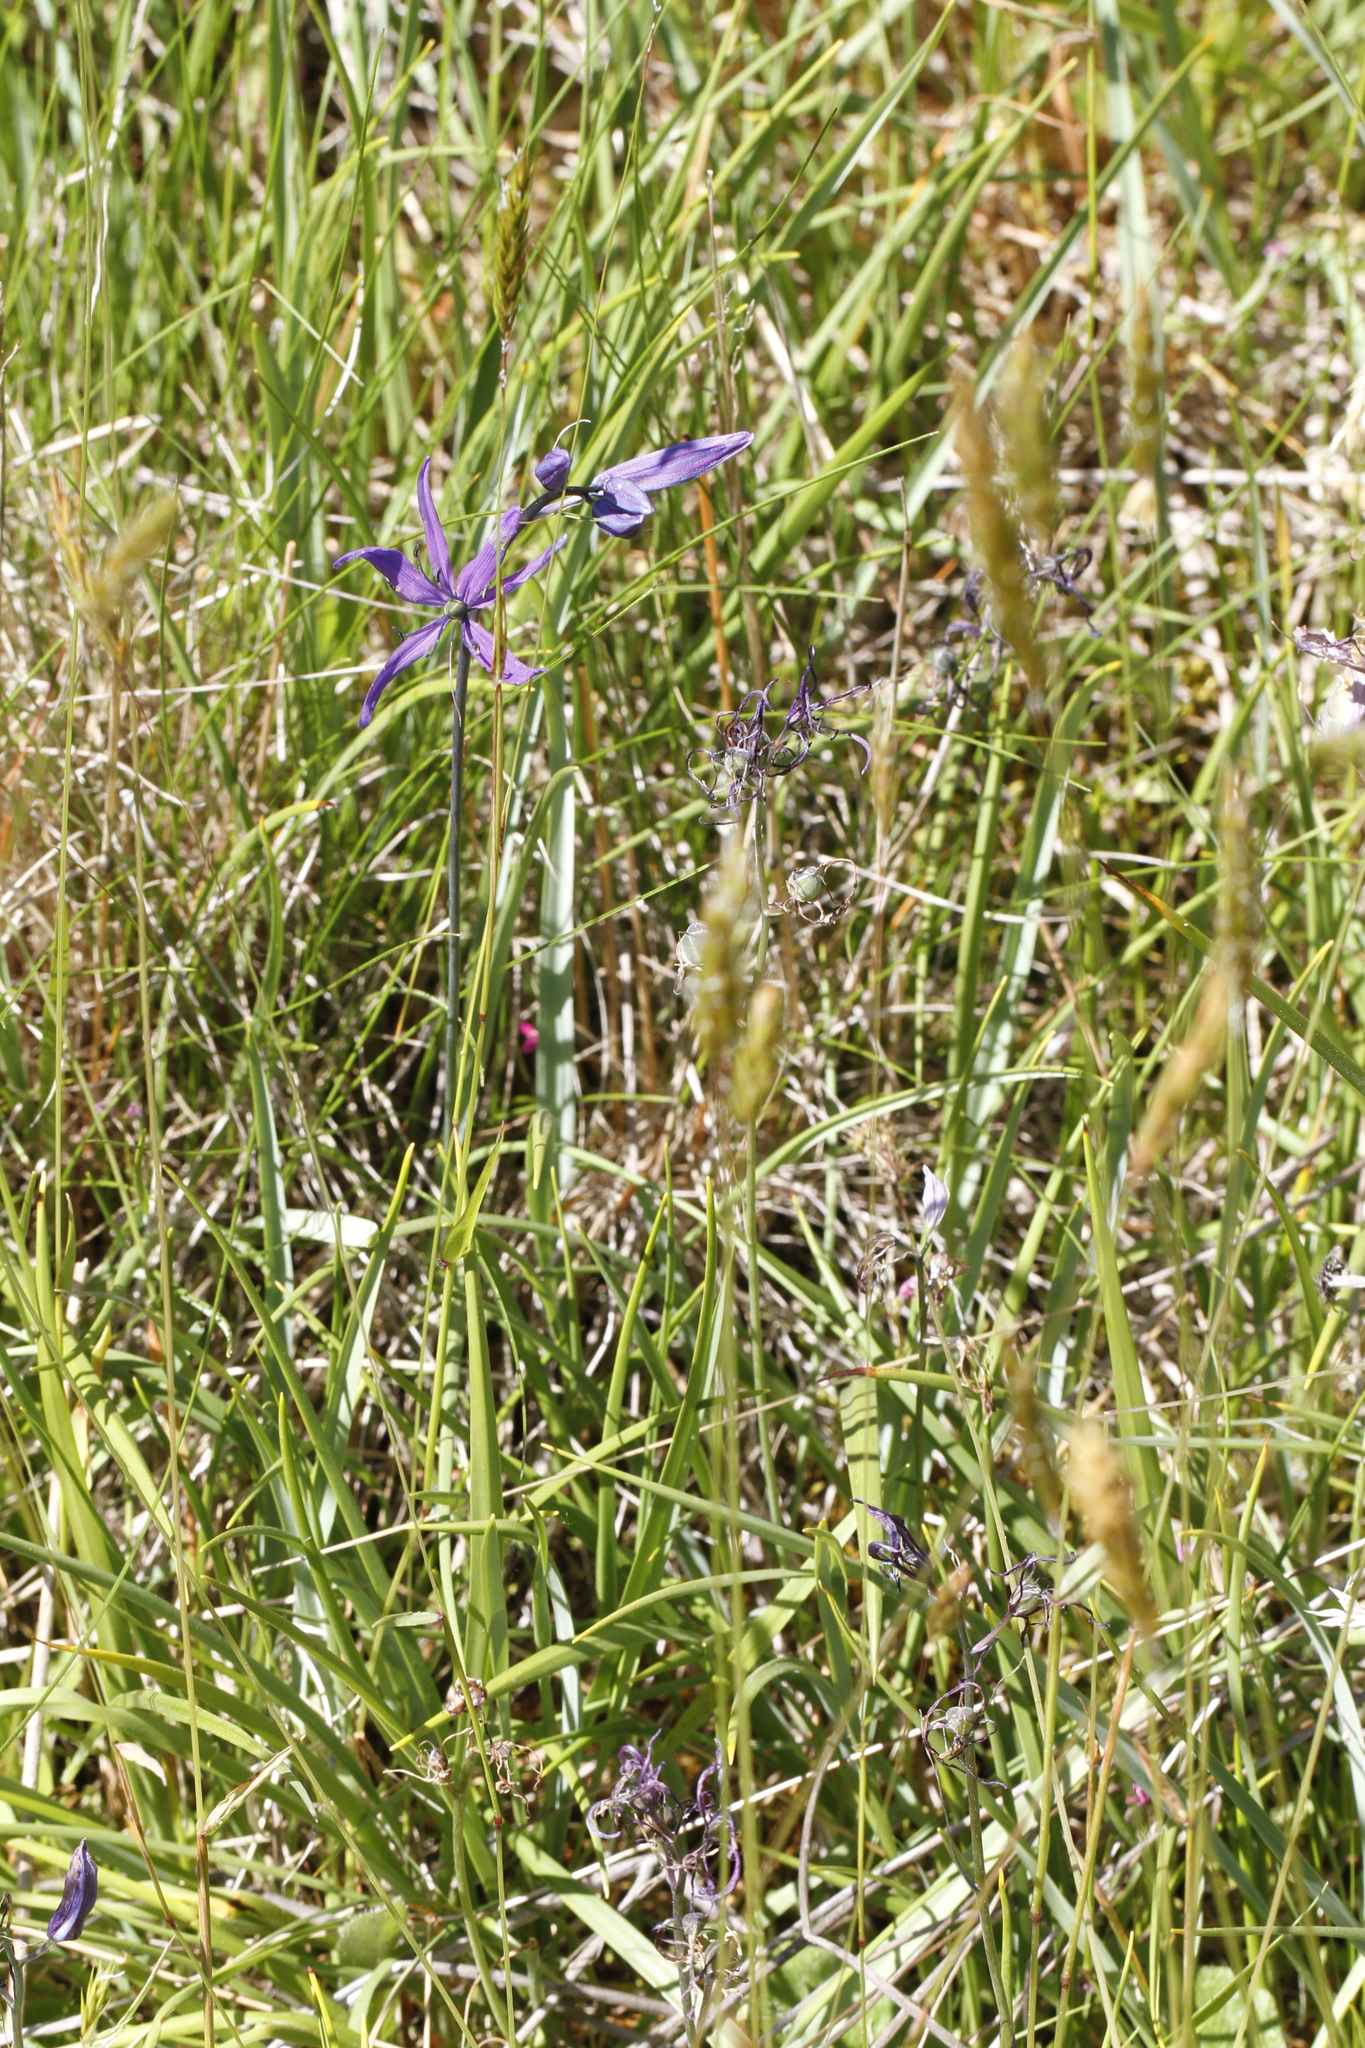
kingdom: Plantae
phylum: Tracheophyta
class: Liliopsida
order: Asparagales
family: Asparagaceae
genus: Camassia
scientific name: Camassia quamash
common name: Common camas
